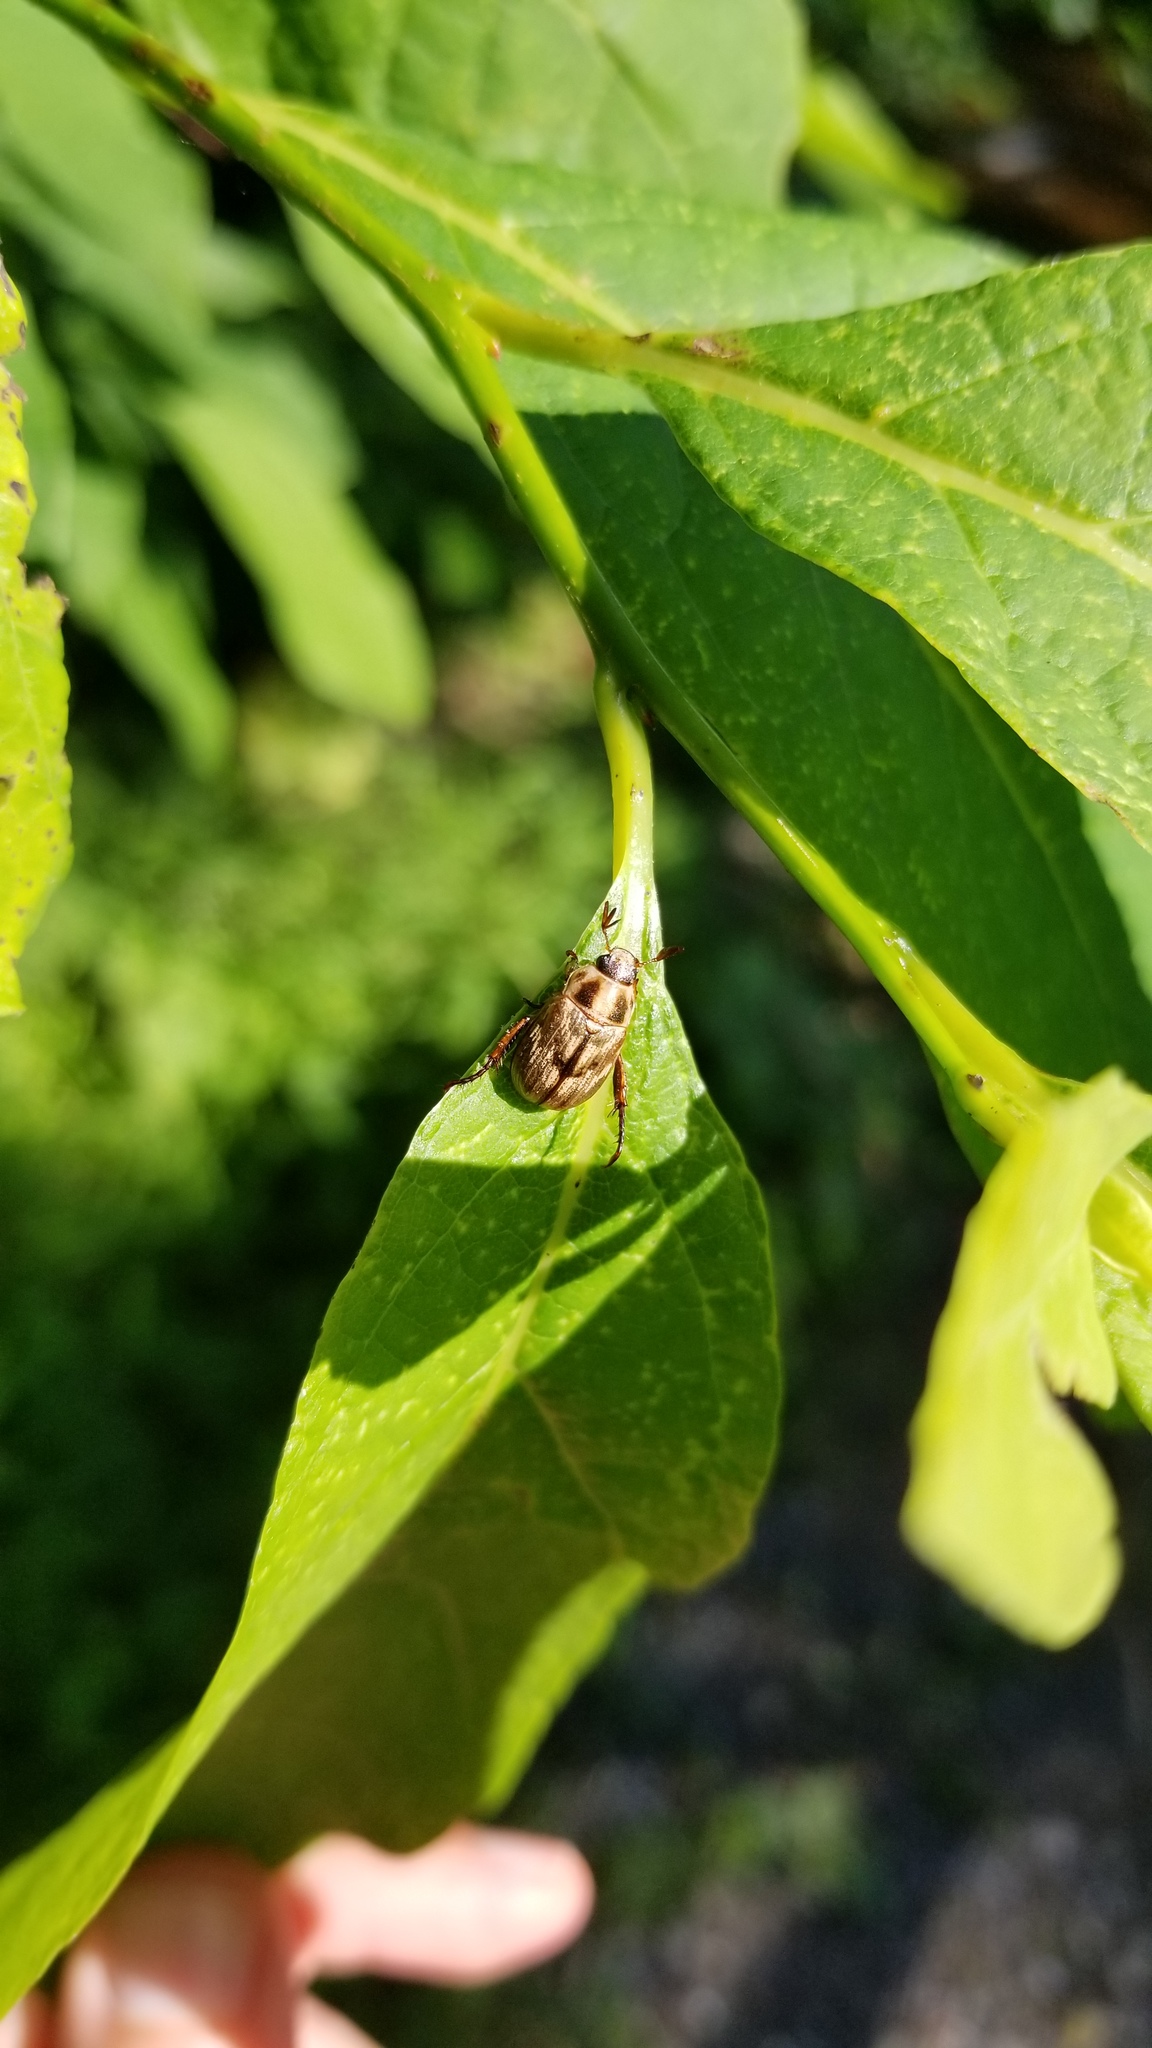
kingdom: Animalia
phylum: Arthropoda
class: Insecta
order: Coleoptera
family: Scarabaeidae
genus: Exomala
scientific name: Exomala orientalis
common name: Oriental beetle
